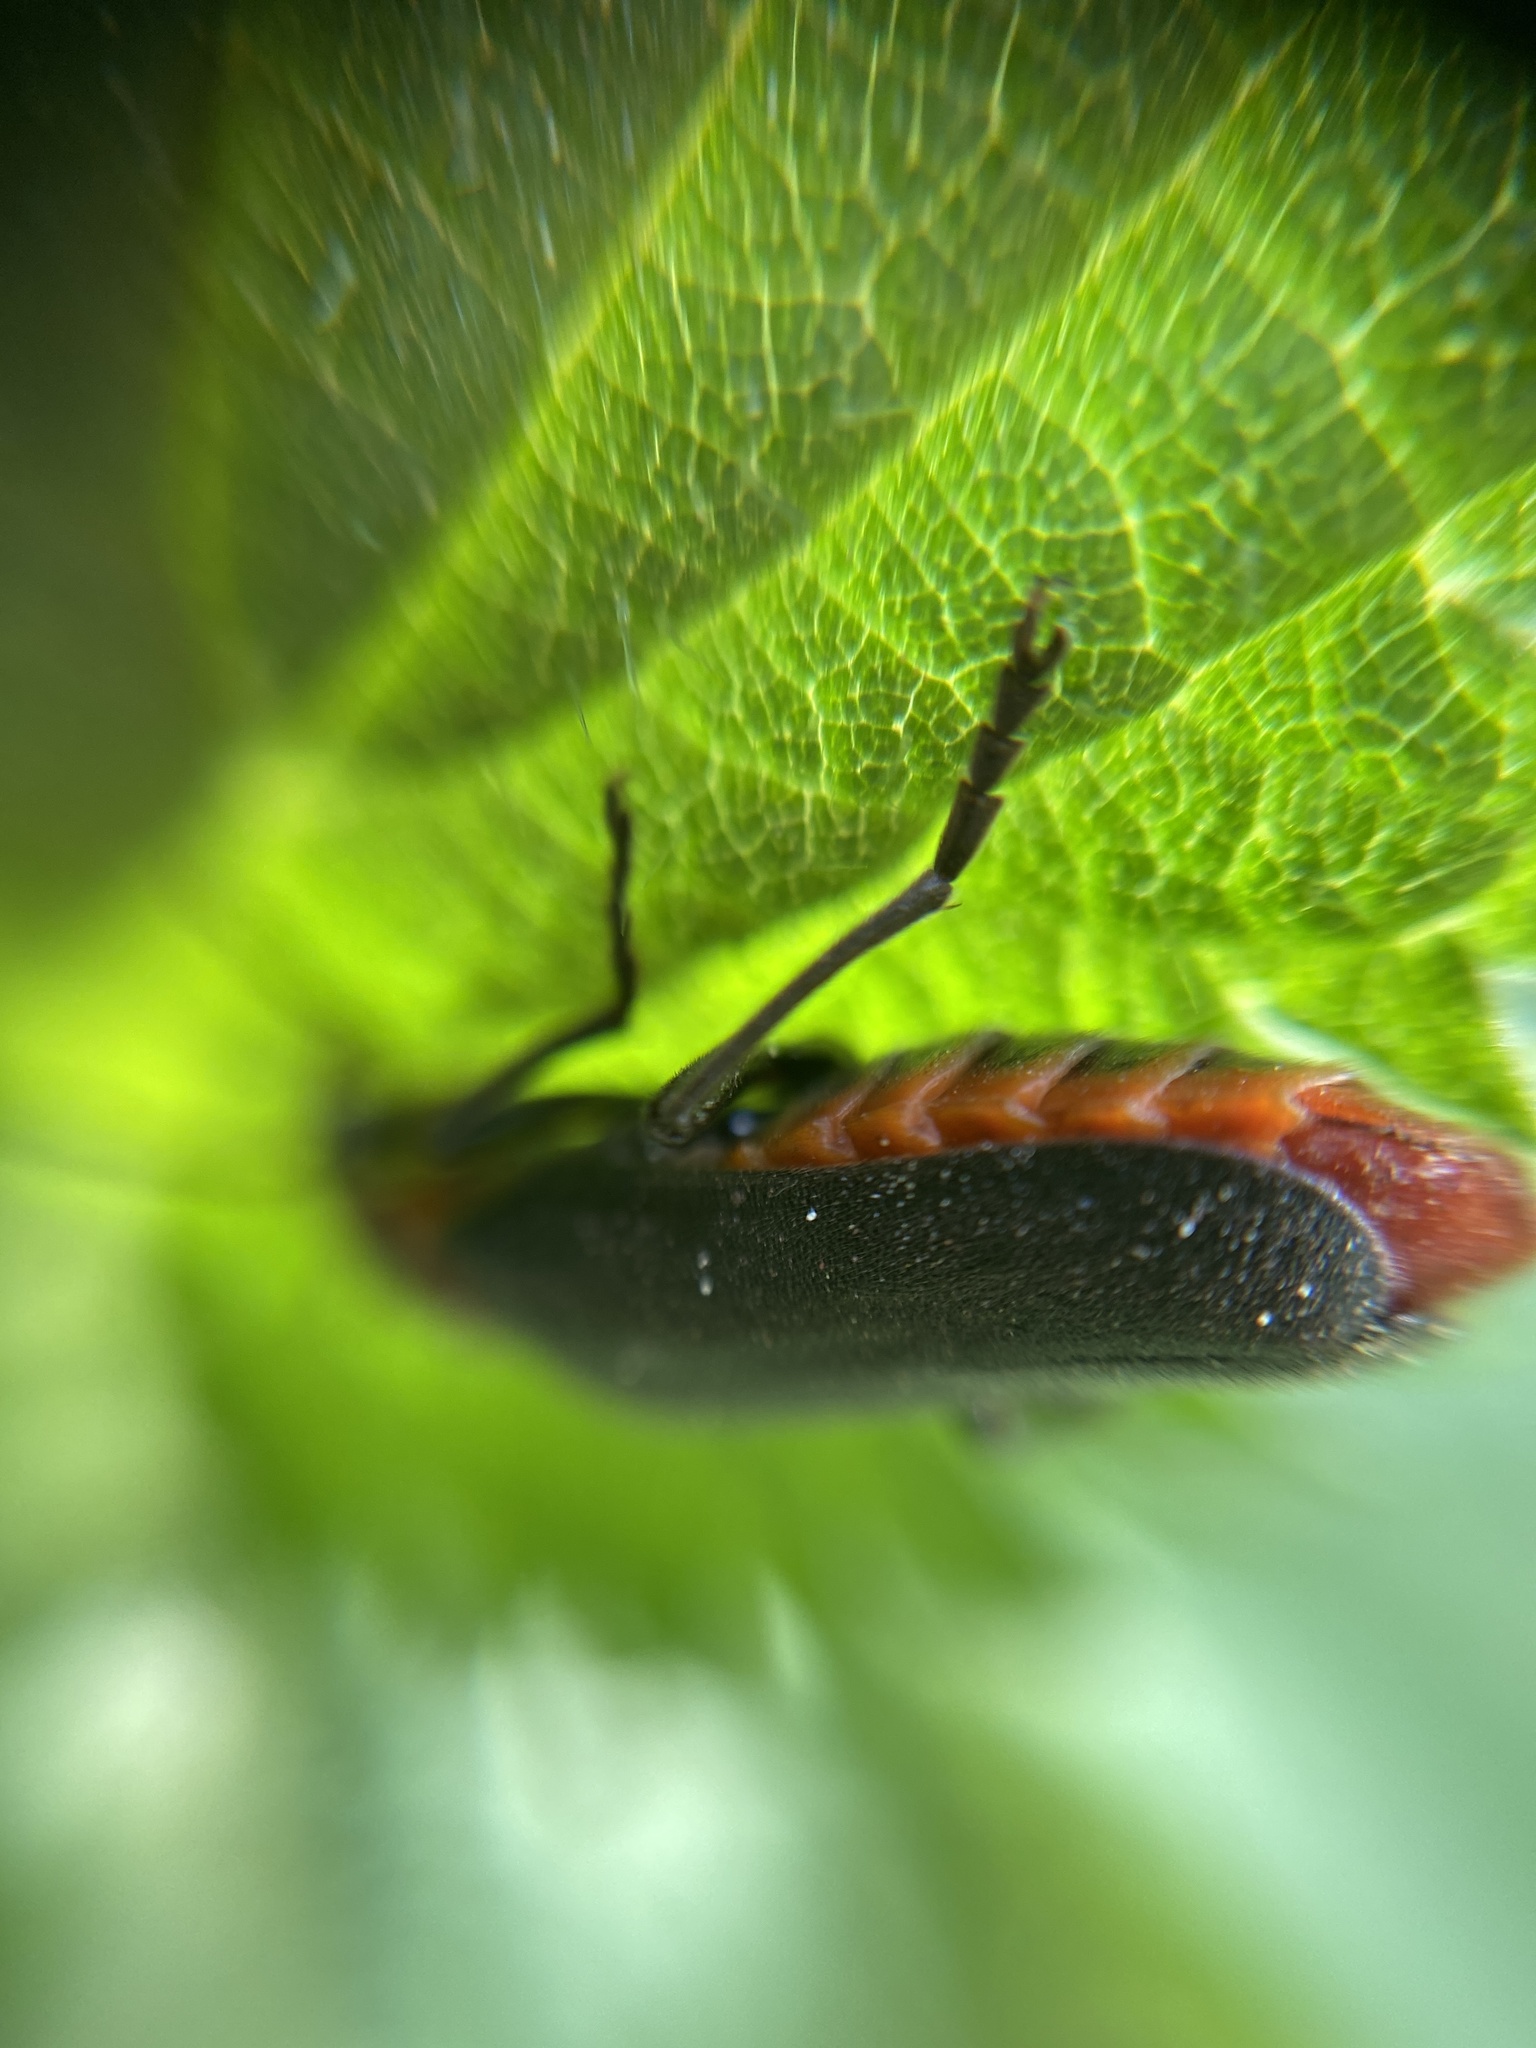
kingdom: Animalia
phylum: Arthropoda
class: Insecta
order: Coleoptera
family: Cantharidae
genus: Cantharis
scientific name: Cantharis rustica
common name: Soldier beetle
